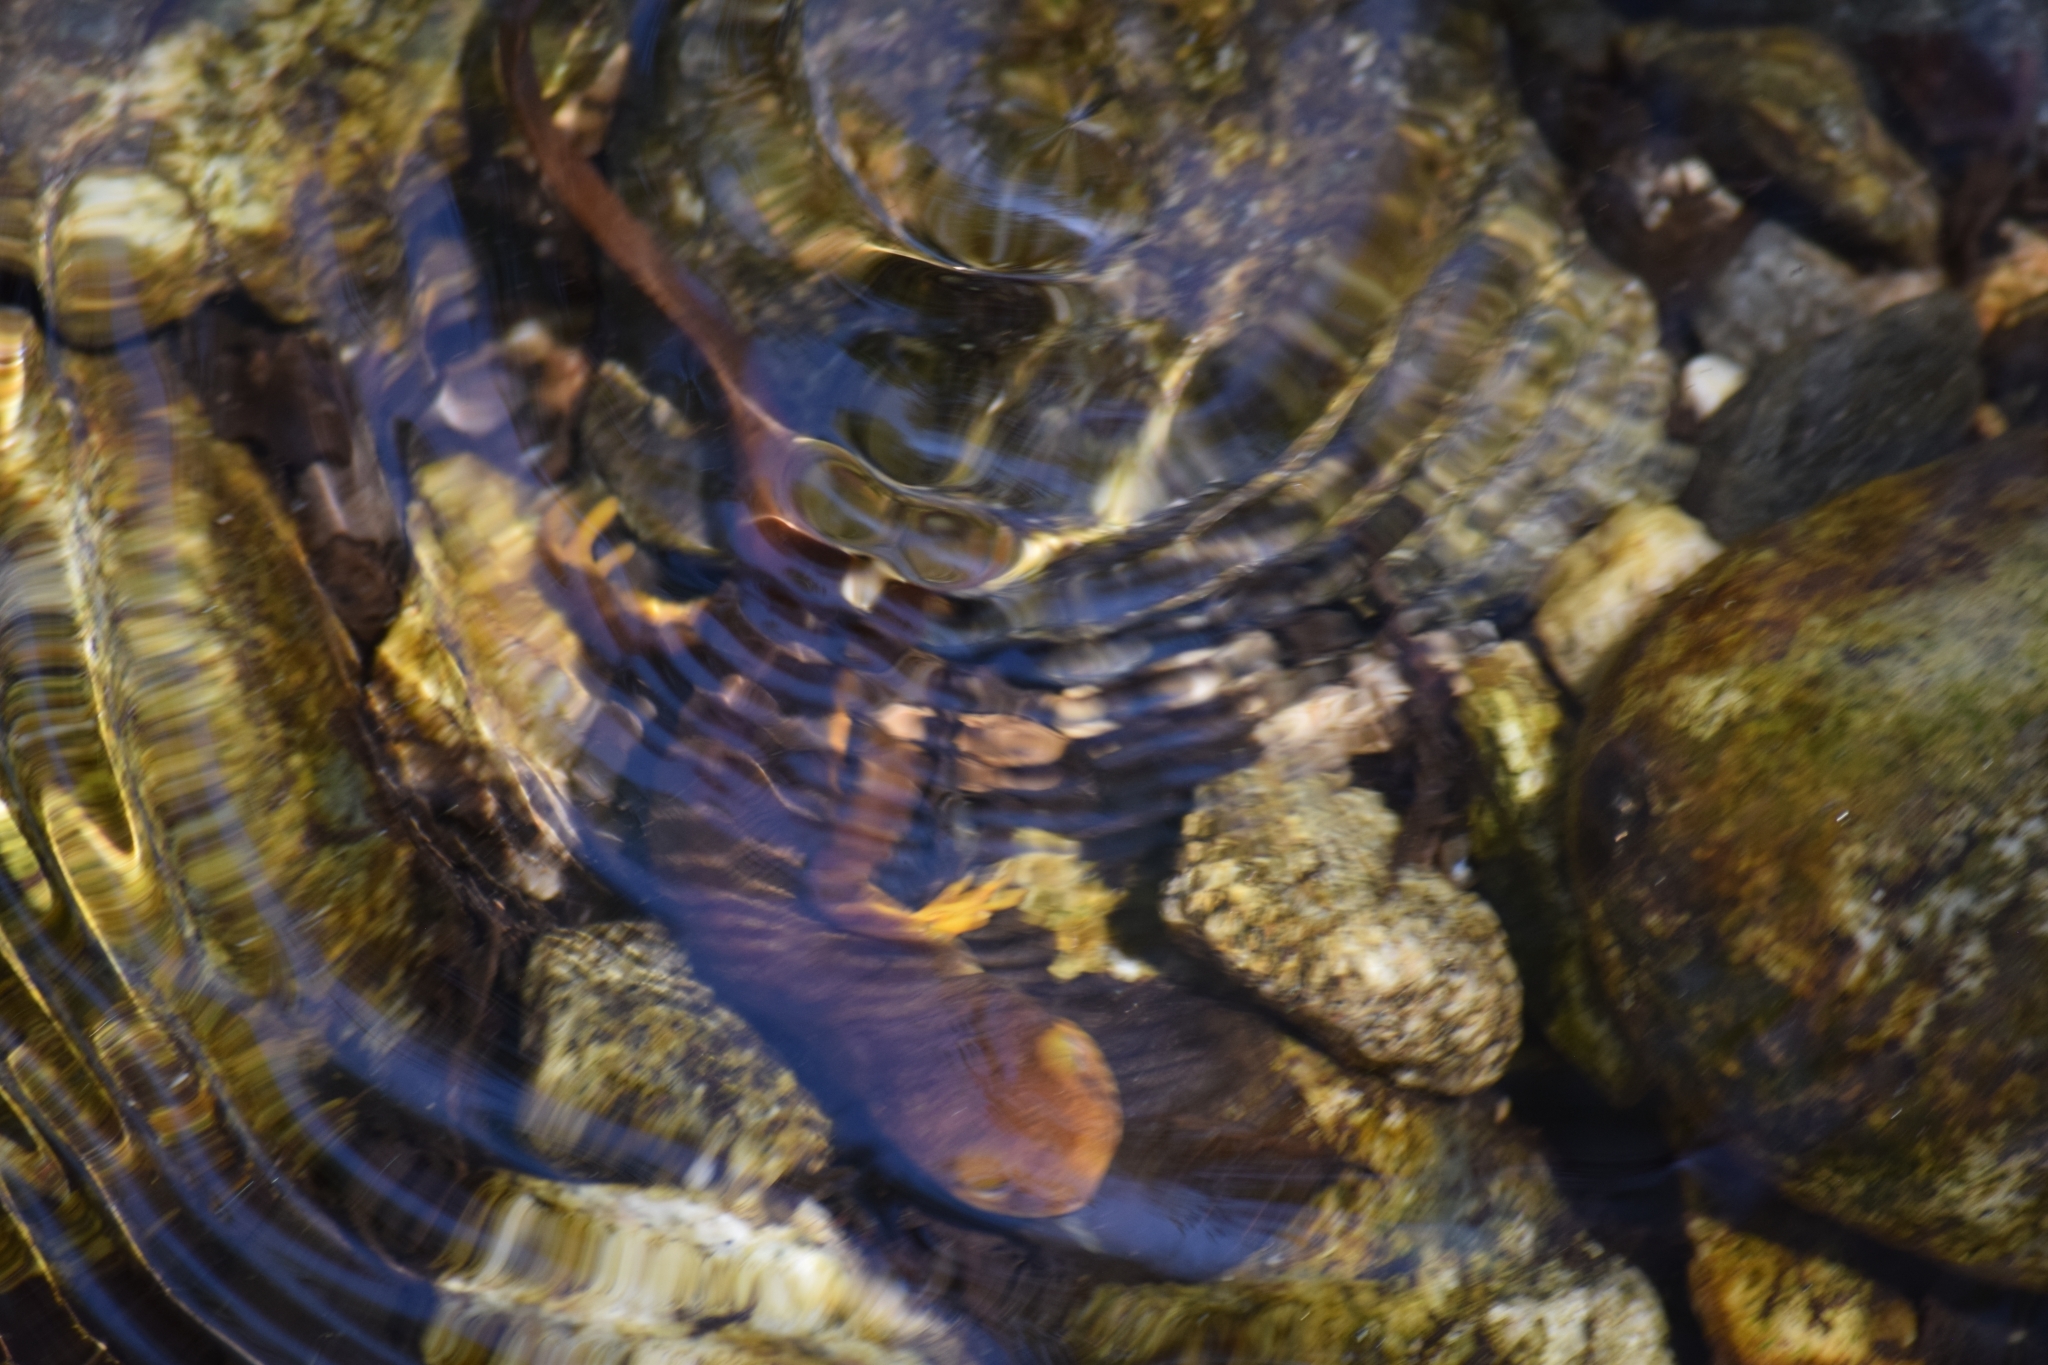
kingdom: Animalia
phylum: Chordata
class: Amphibia
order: Caudata
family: Salamandridae
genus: Taricha
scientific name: Taricha torosa
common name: California newt
